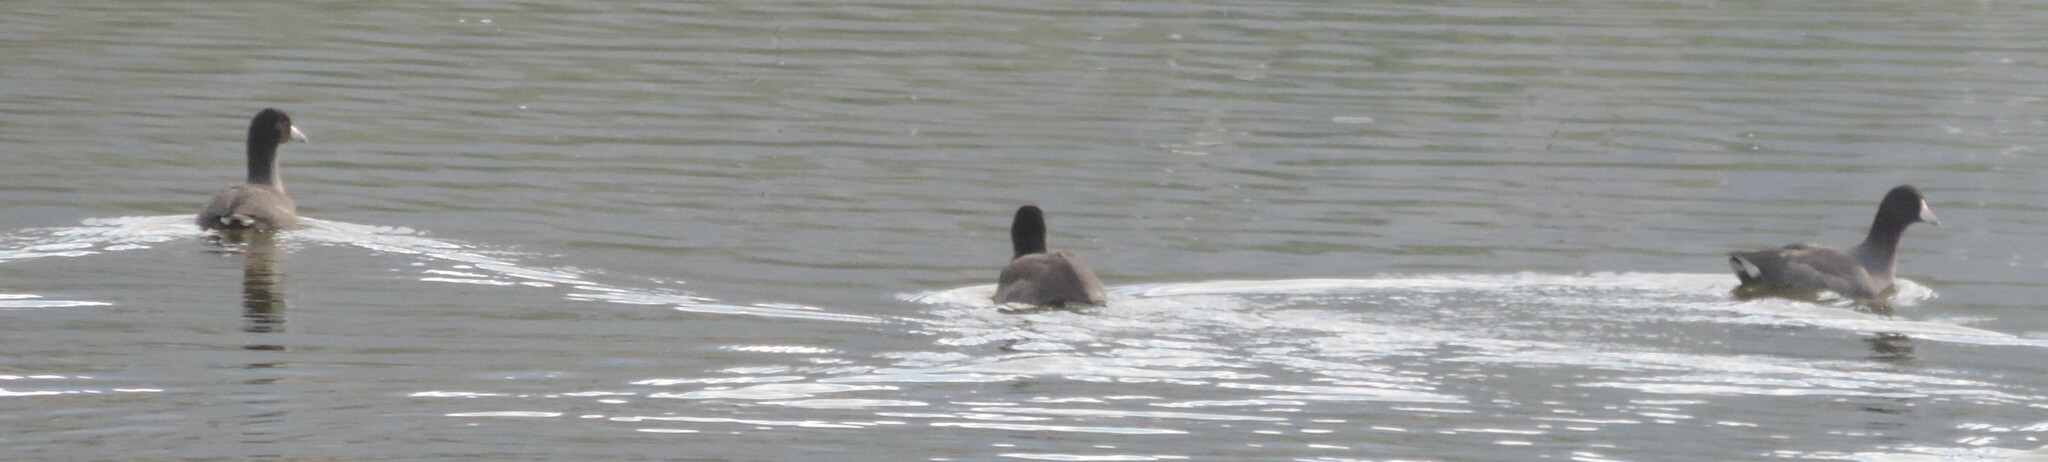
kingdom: Animalia
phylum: Chordata
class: Aves
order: Gruiformes
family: Rallidae
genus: Fulica
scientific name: Fulica americana
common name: American coot
